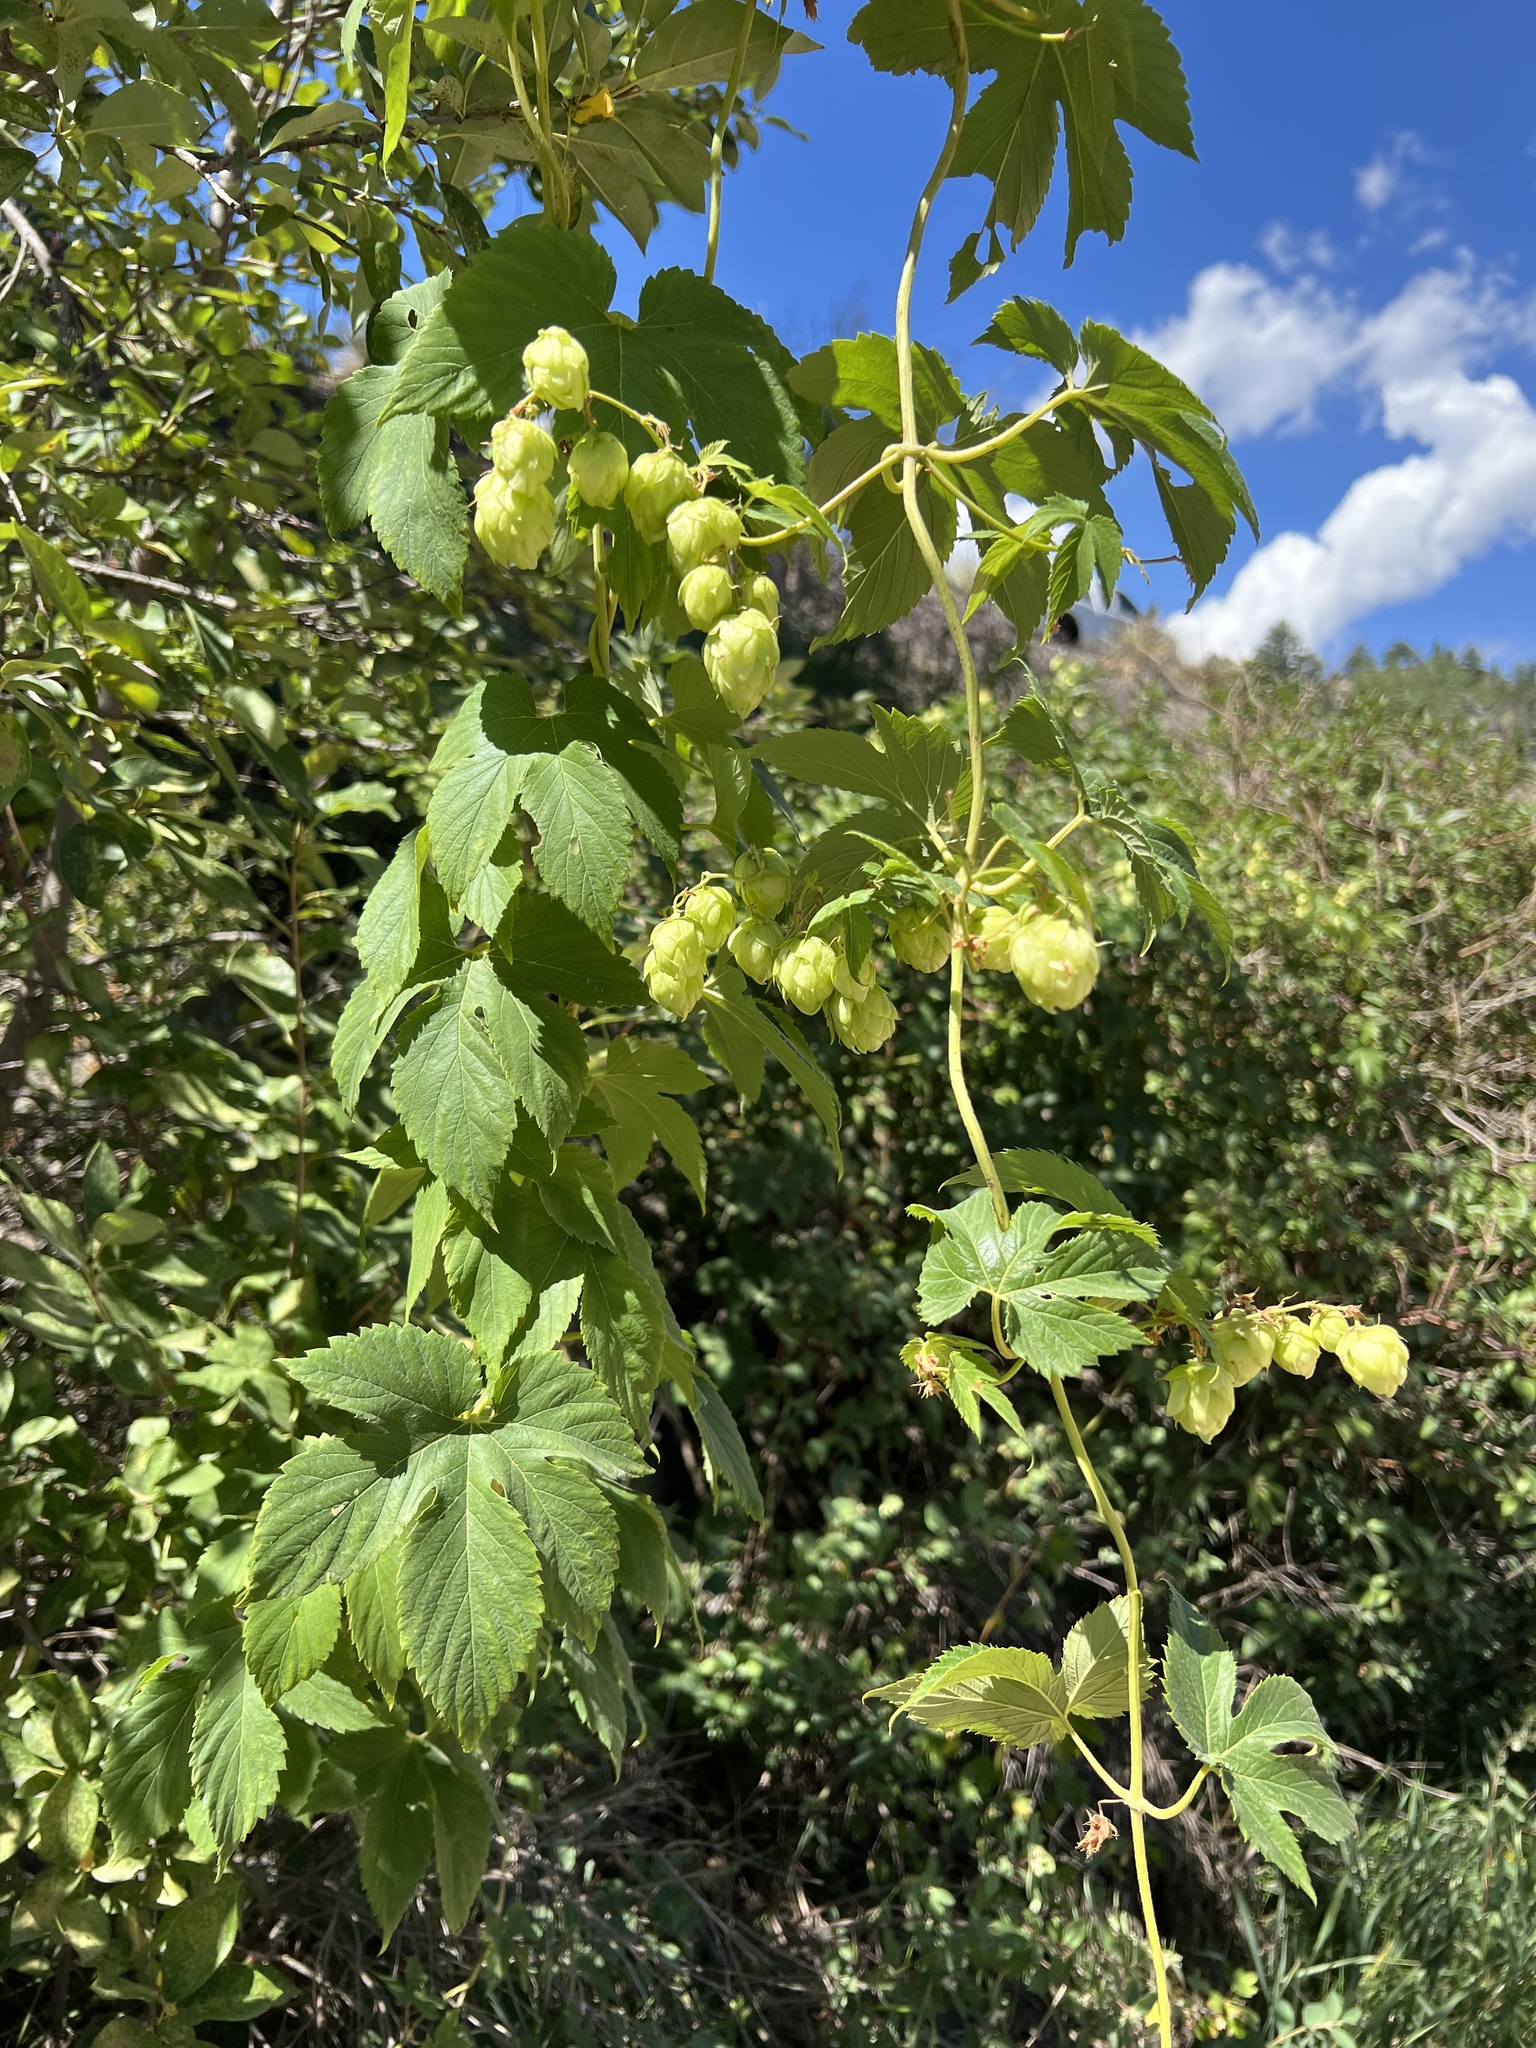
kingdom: Plantae
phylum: Tracheophyta
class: Magnoliopsida
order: Rosales
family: Cannabaceae
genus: Humulus
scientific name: Humulus lupulus
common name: Hop
